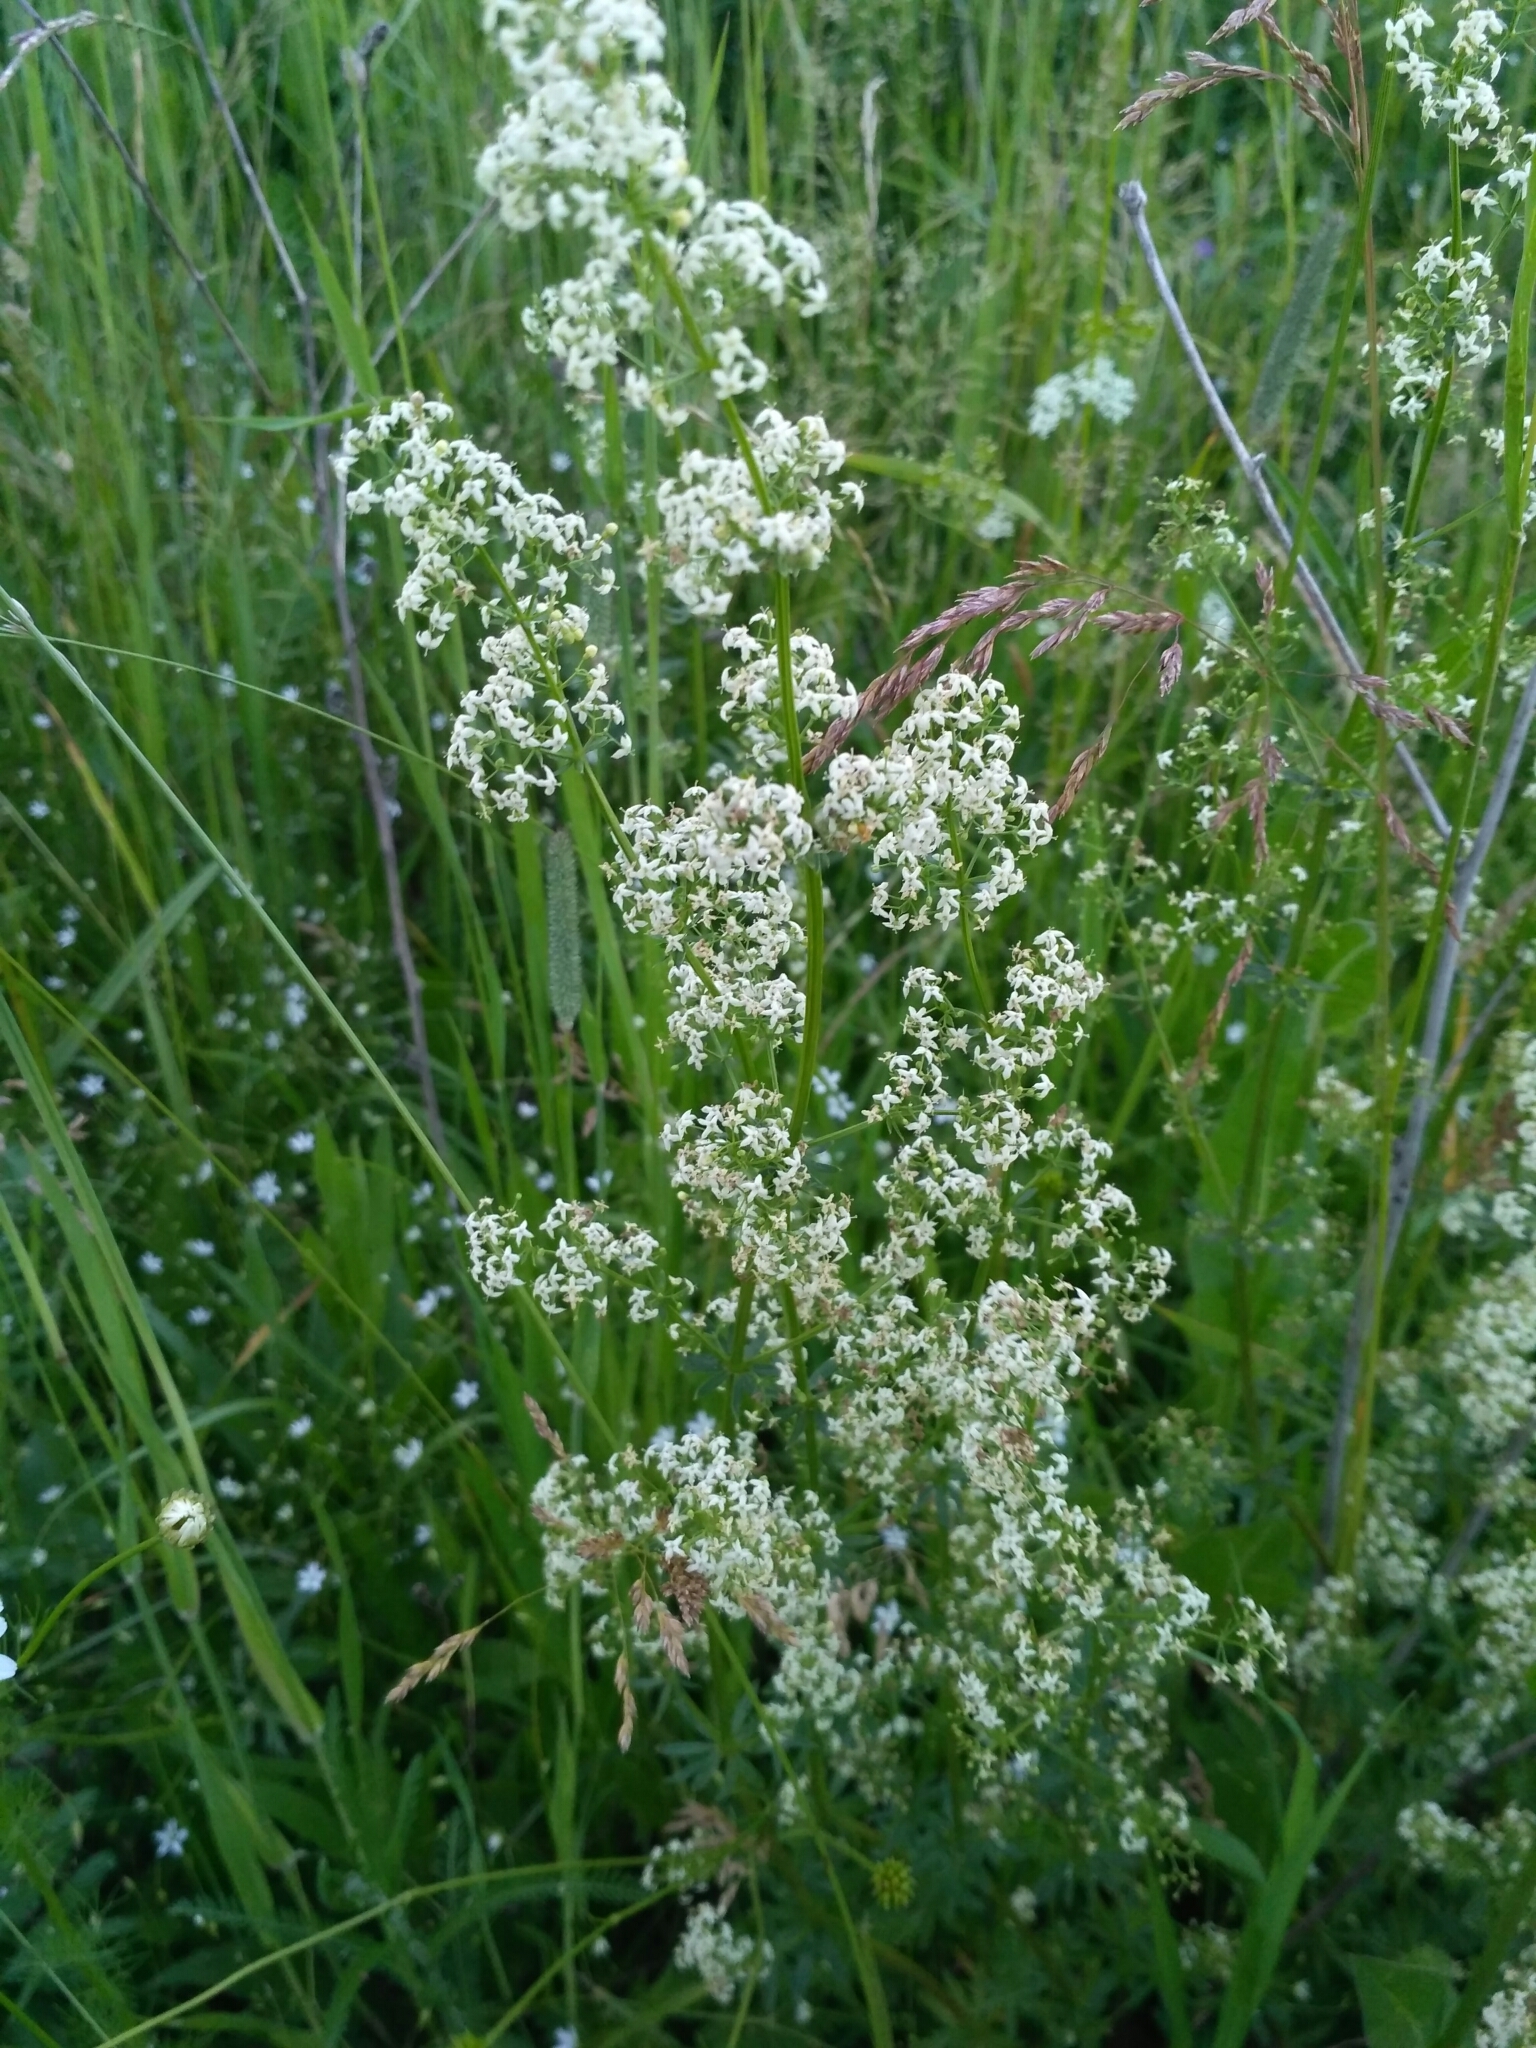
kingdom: Plantae
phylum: Tracheophyta
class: Magnoliopsida
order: Gentianales
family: Rubiaceae
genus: Galium
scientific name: Galium mollugo
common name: Hedge bedstraw
